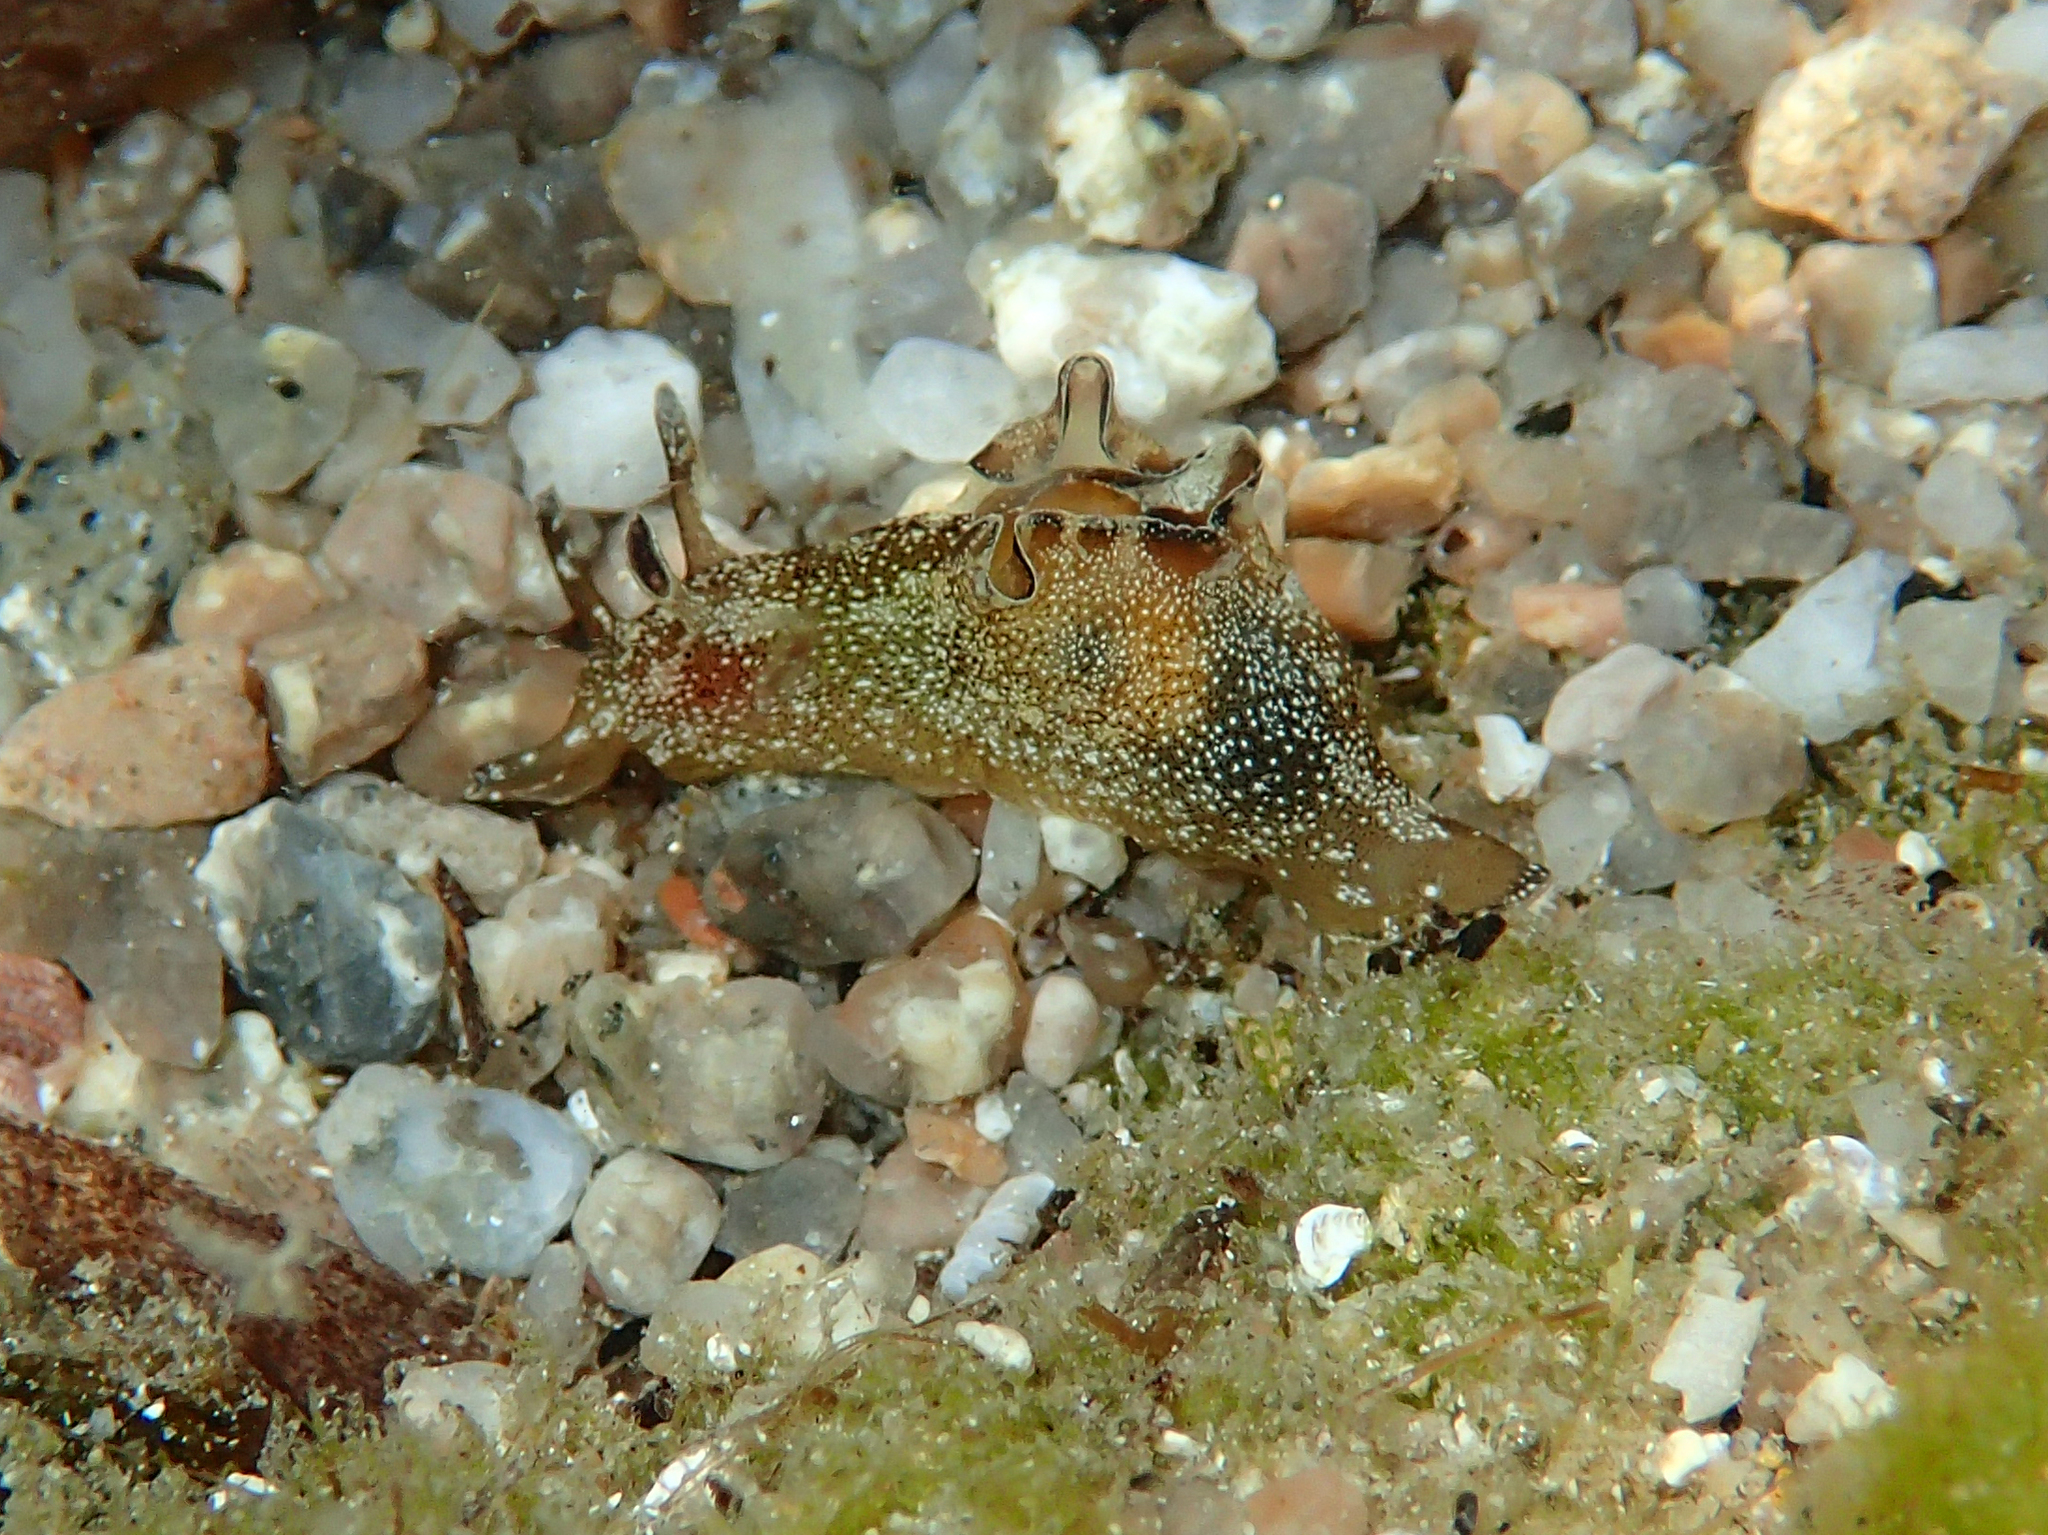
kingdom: Animalia
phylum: Mollusca
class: Gastropoda
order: Aplysiida
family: Aplysiidae
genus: Aplysia
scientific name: Aplysia punctata
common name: Common sea hare
